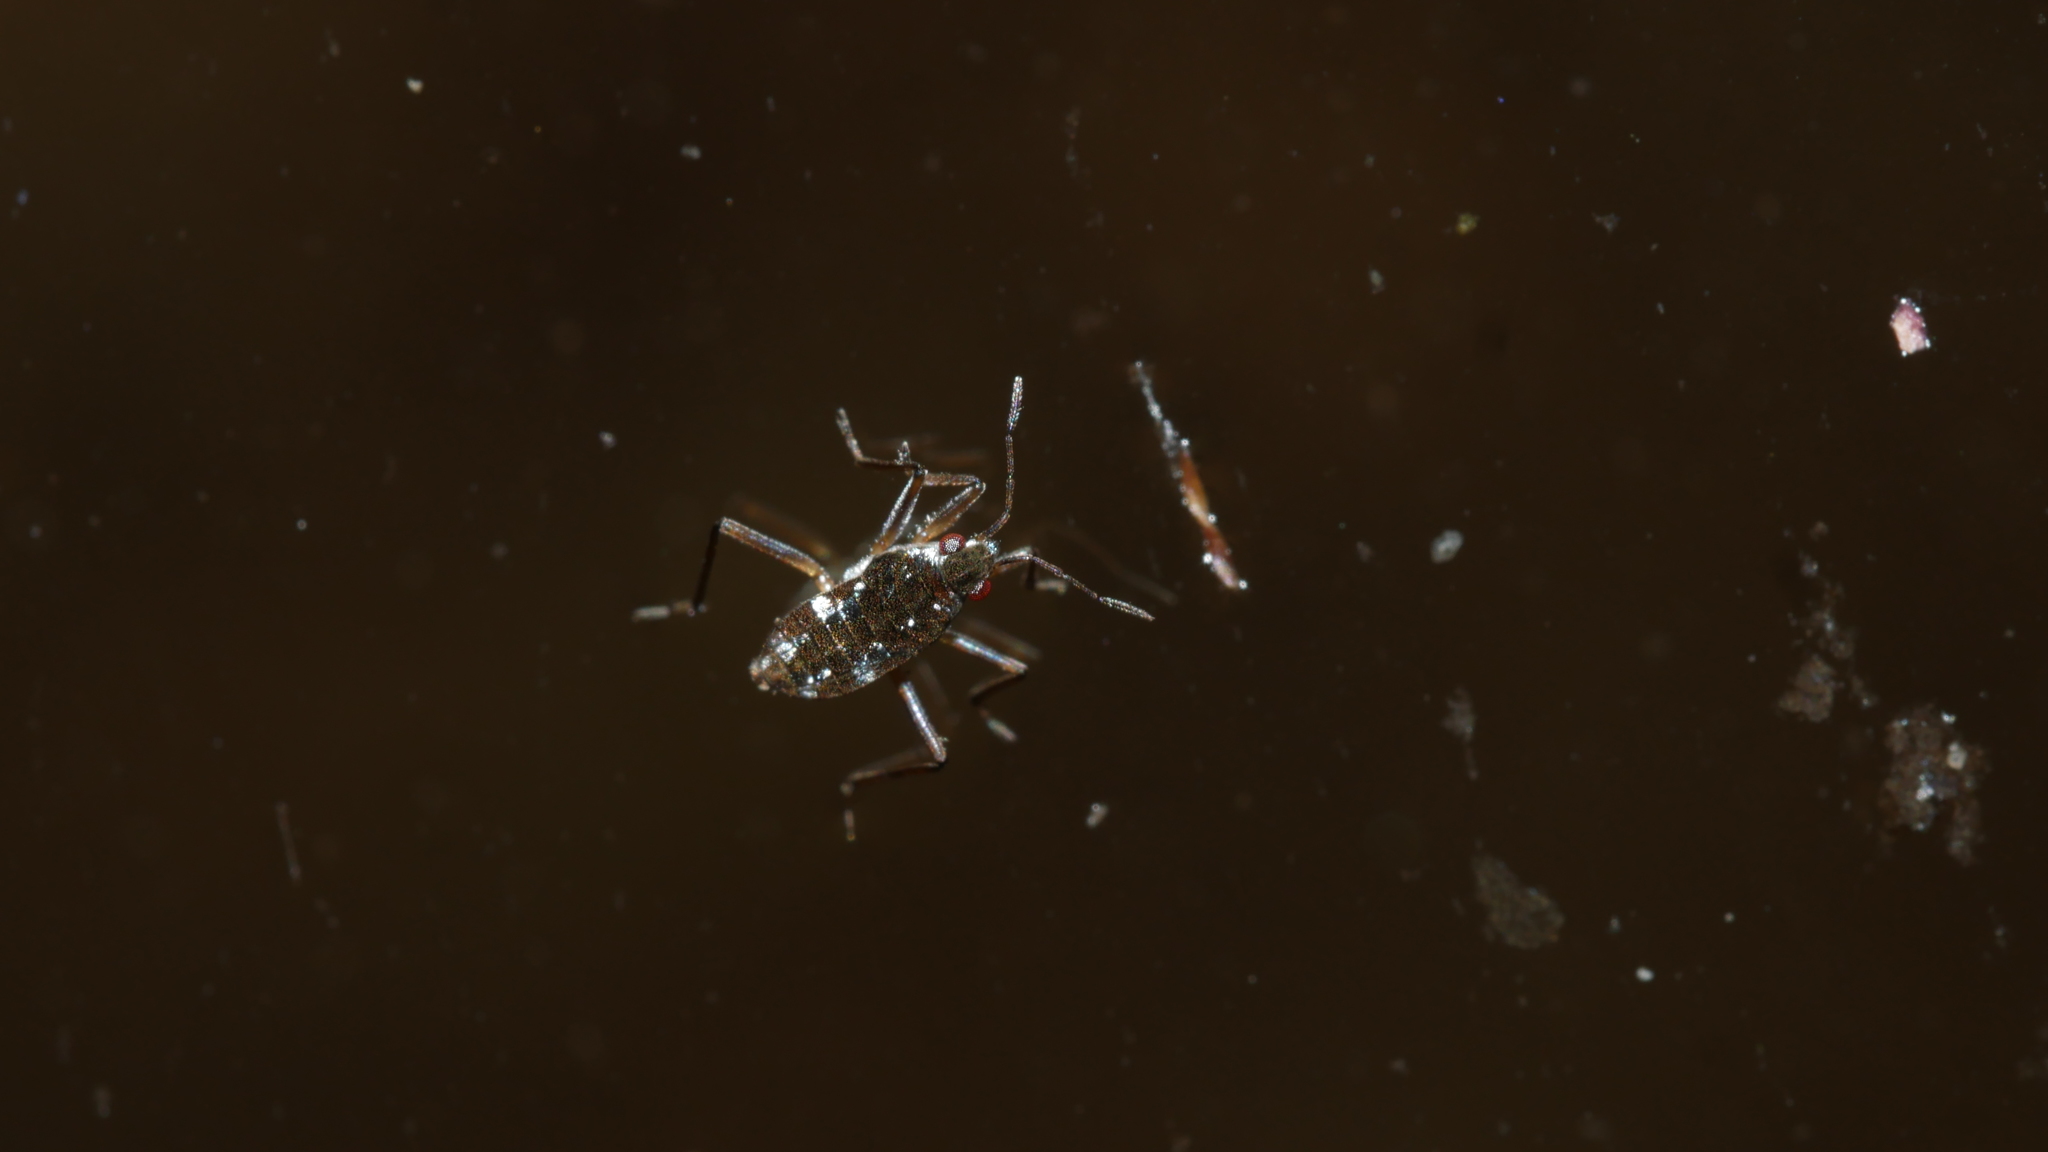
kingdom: Animalia
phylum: Arthropoda
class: Insecta
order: Hemiptera
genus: Kirkaldya
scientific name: Kirkaldya
